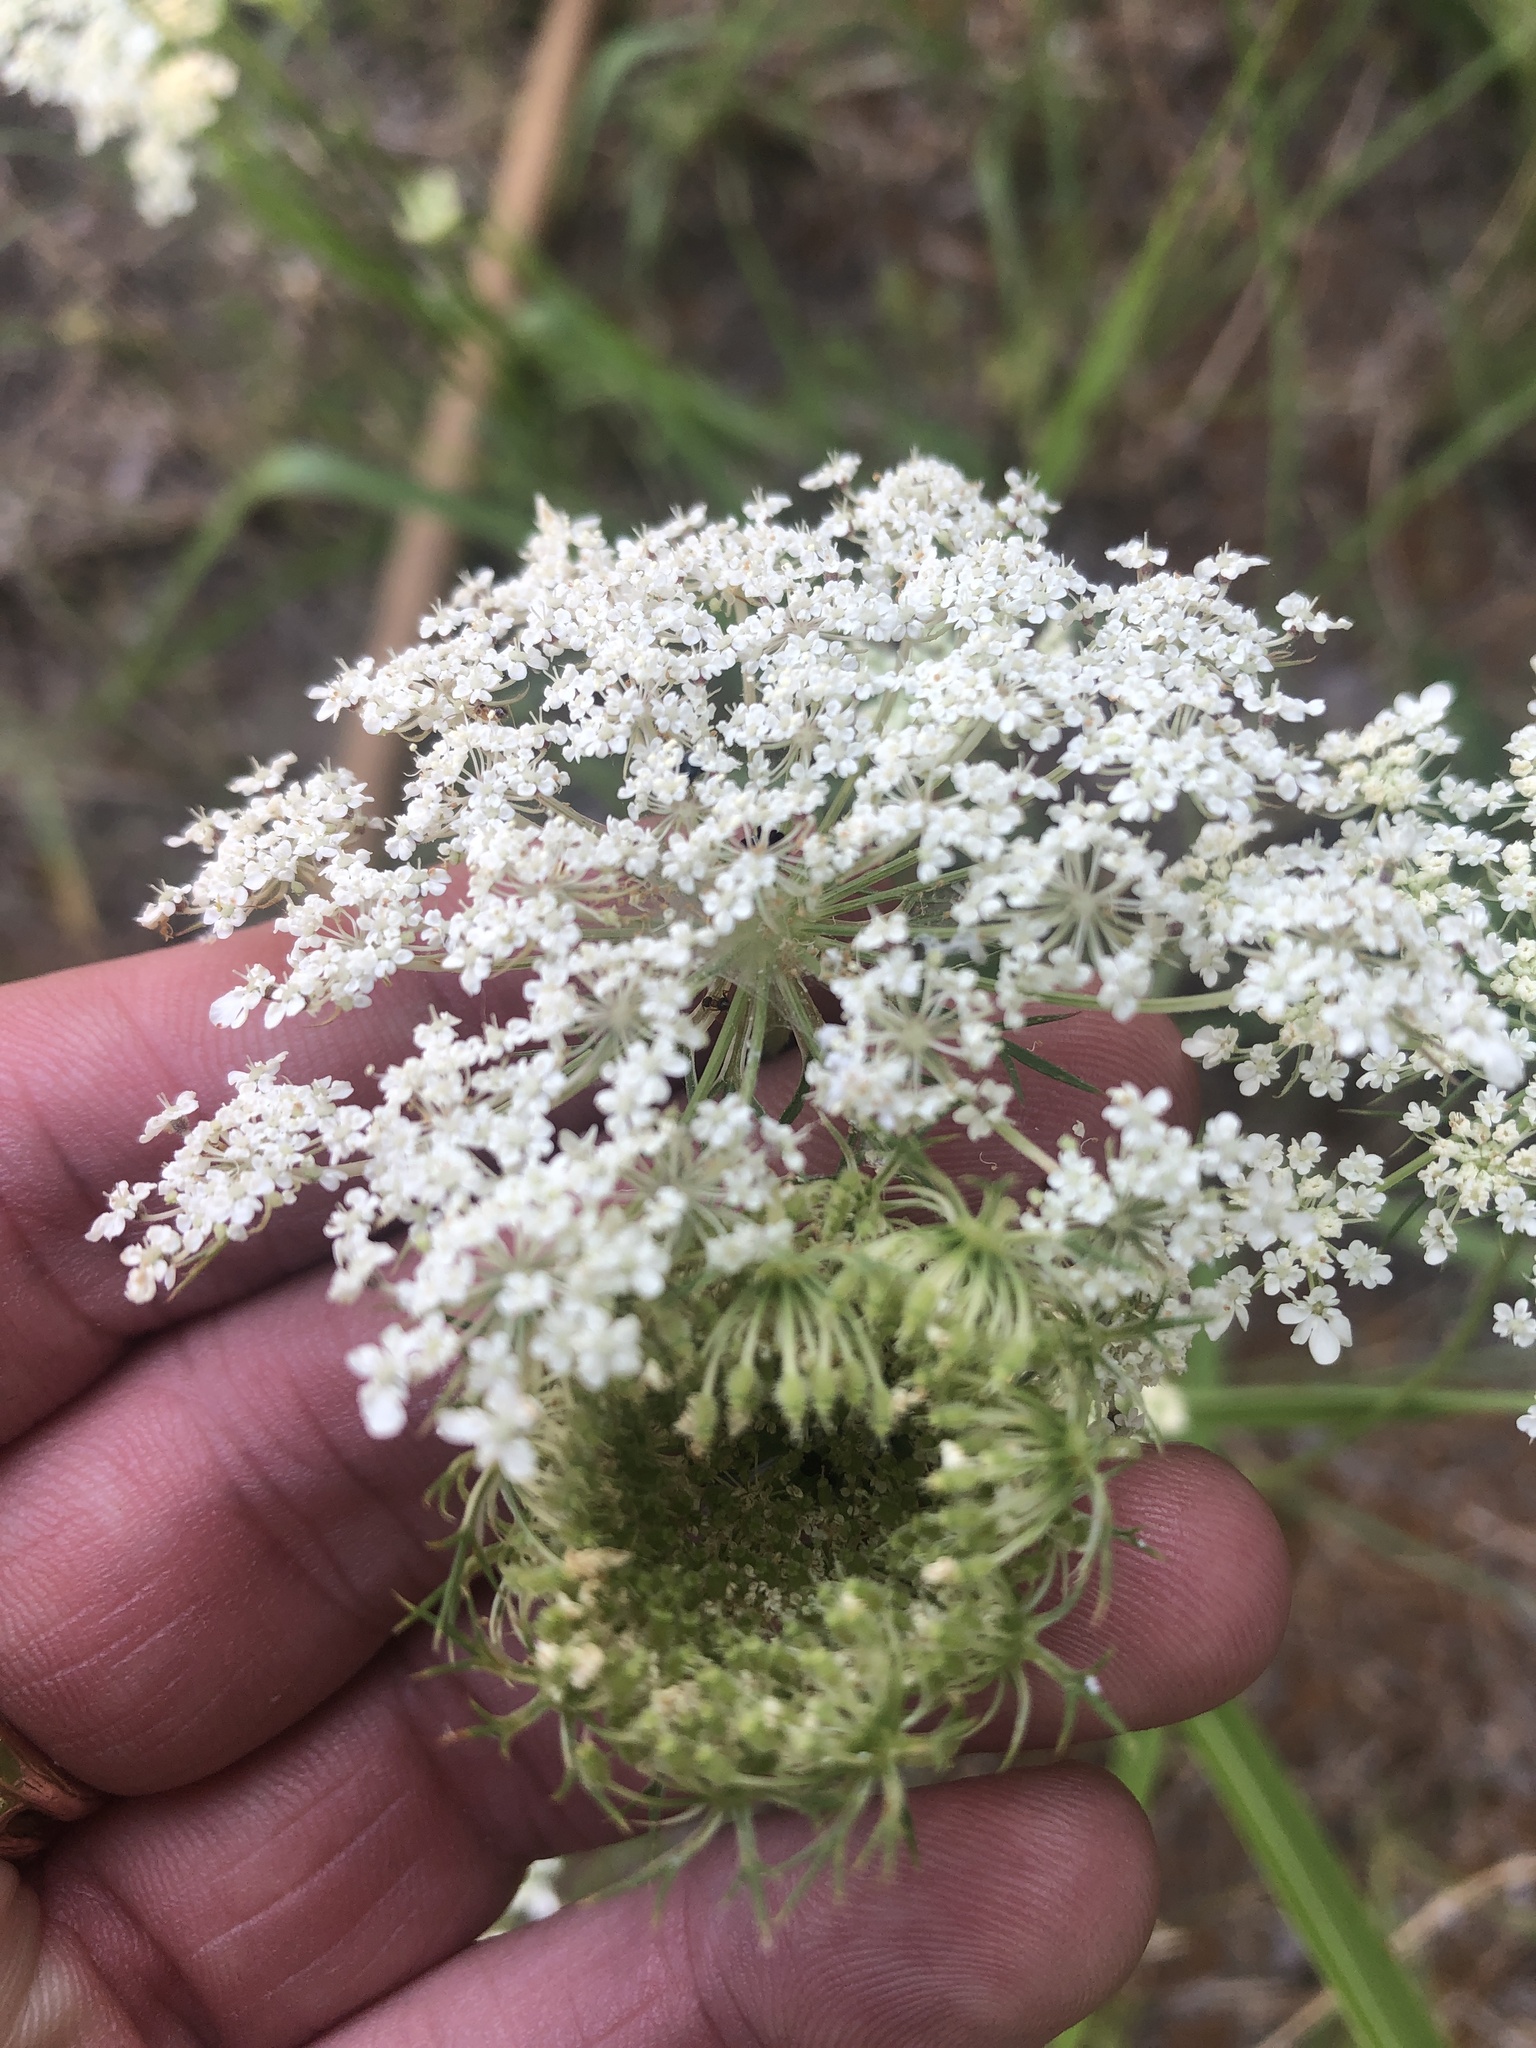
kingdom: Plantae
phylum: Tracheophyta
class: Magnoliopsida
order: Apiales
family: Apiaceae
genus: Daucus
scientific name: Daucus carota
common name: Wild carrot
